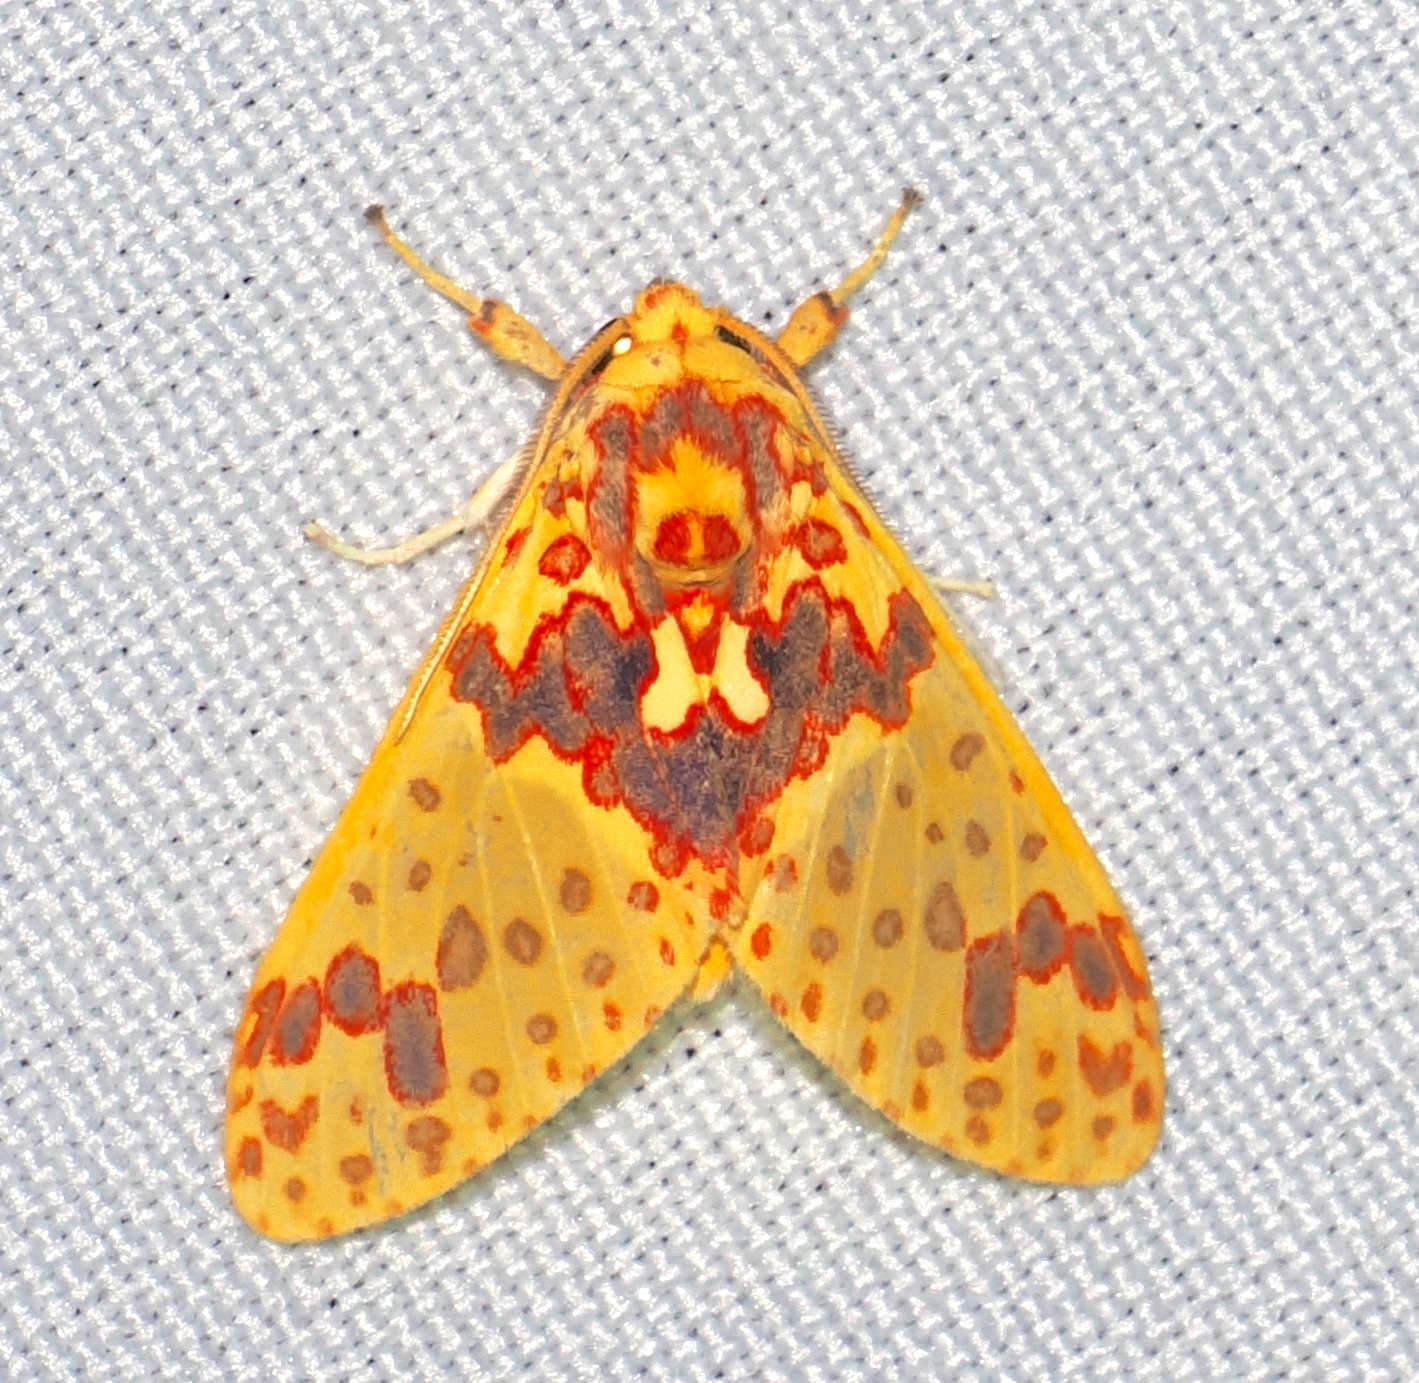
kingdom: Animalia
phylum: Arthropoda
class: Insecta
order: Lepidoptera
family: Erebidae
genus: Amaxia
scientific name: Amaxia pseudodyuna
